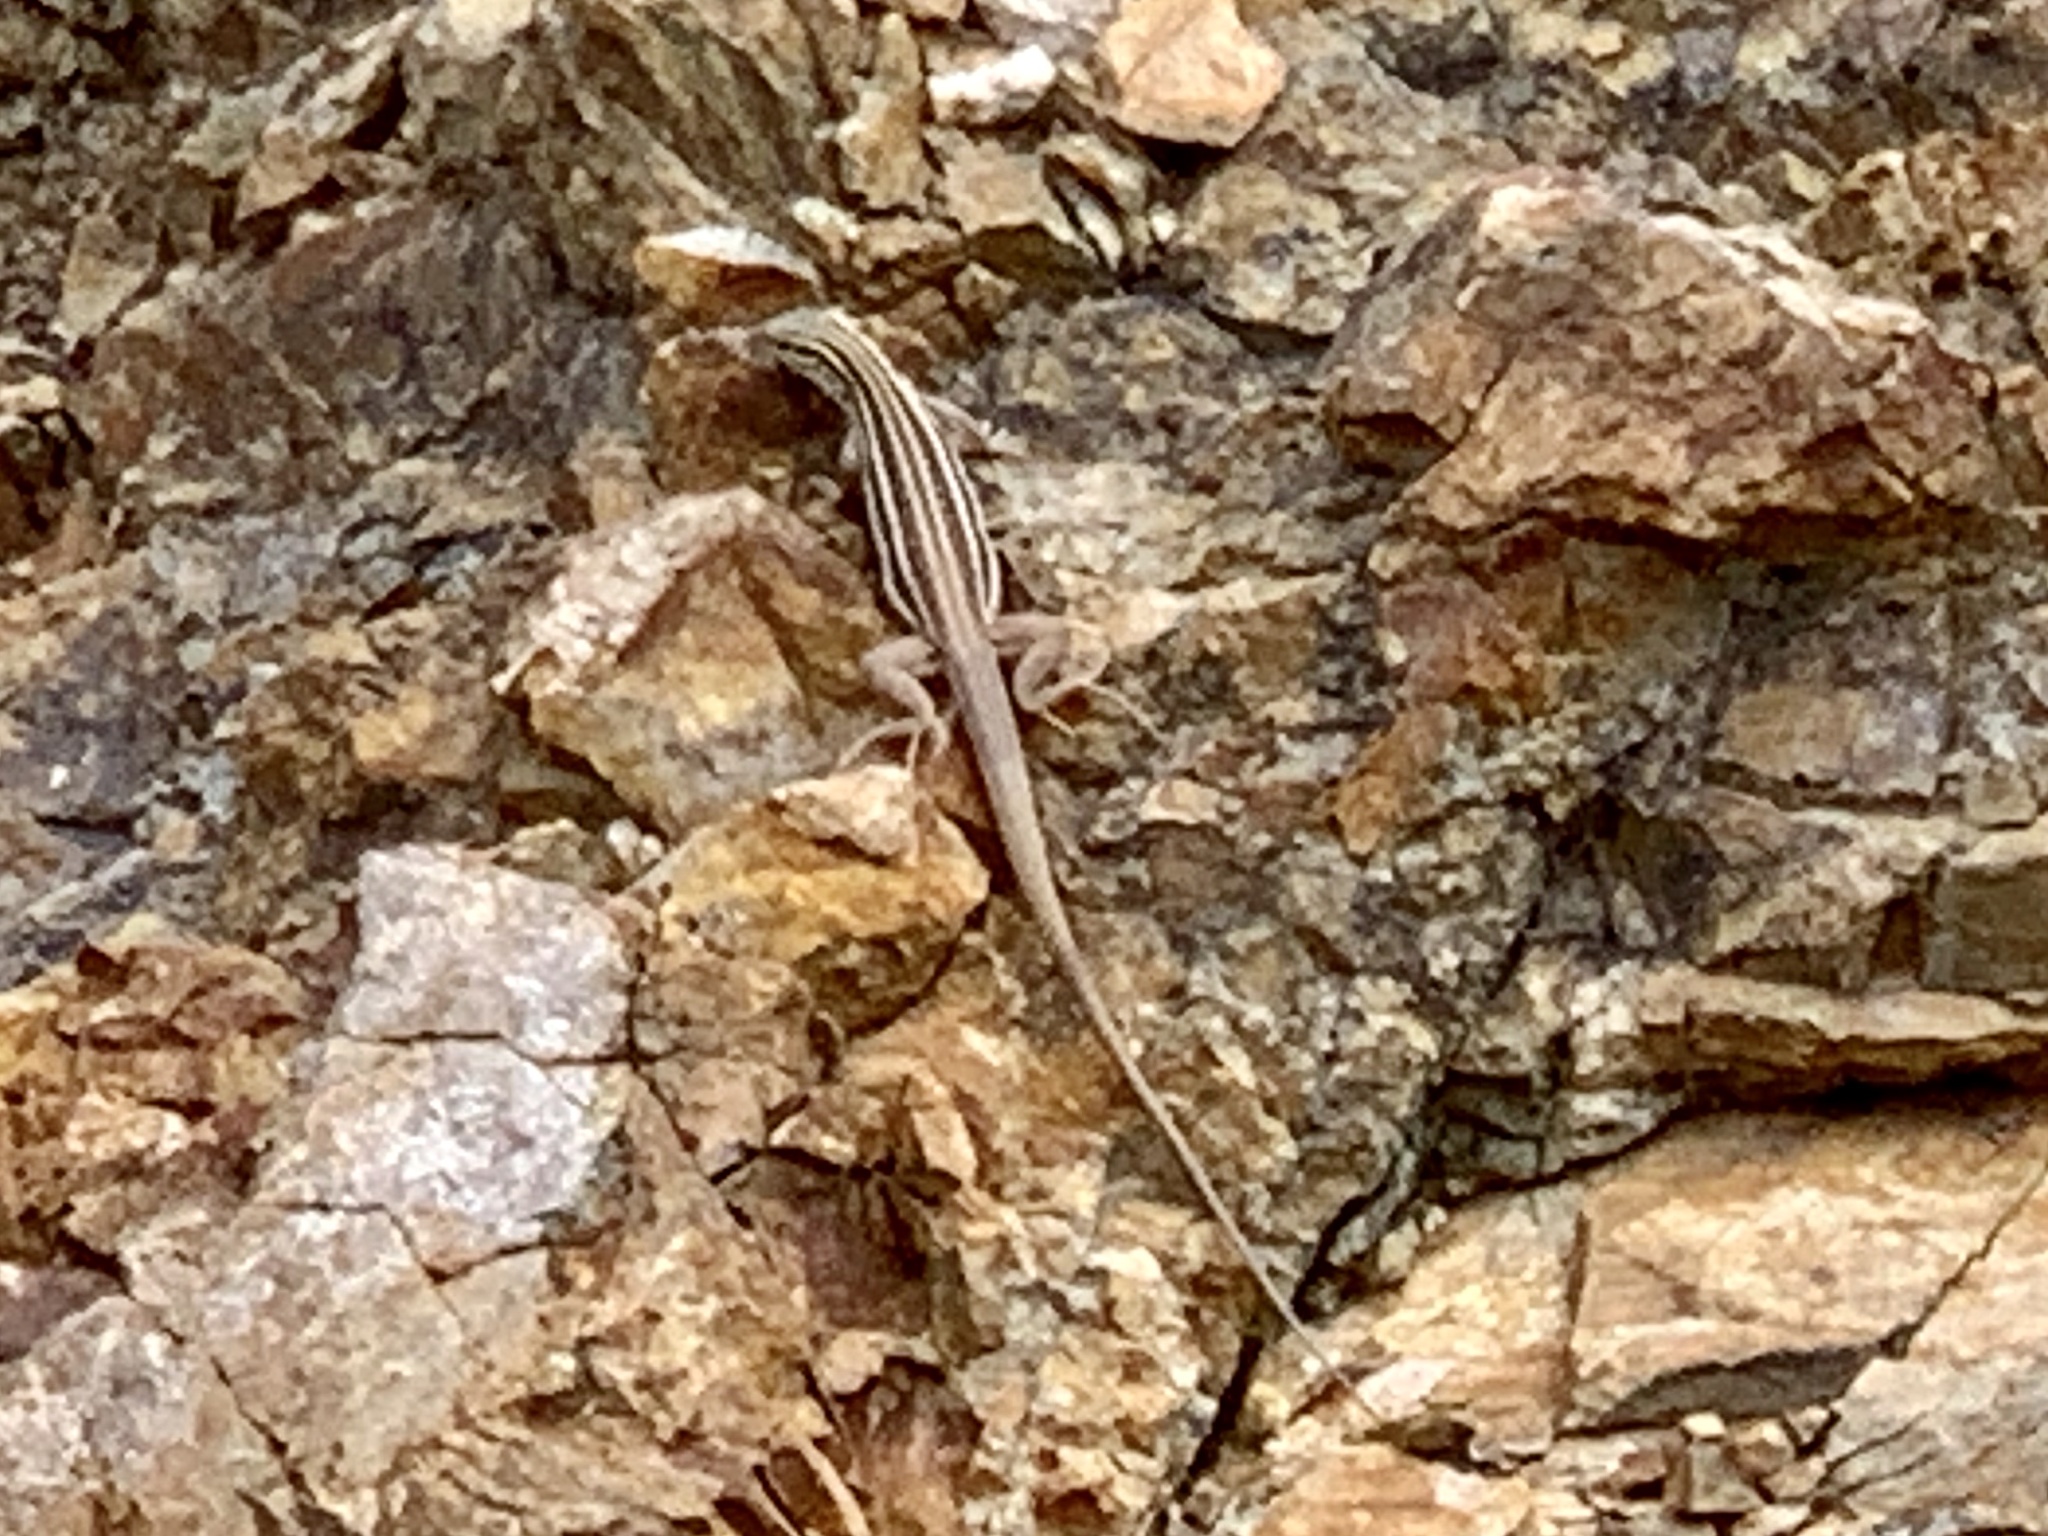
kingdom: Animalia
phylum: Chordata
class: Squamata
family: Teiidae
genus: Aspidoscelis
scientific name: Aspidoscelis sonorae
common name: Sonoran spotted whiptail
